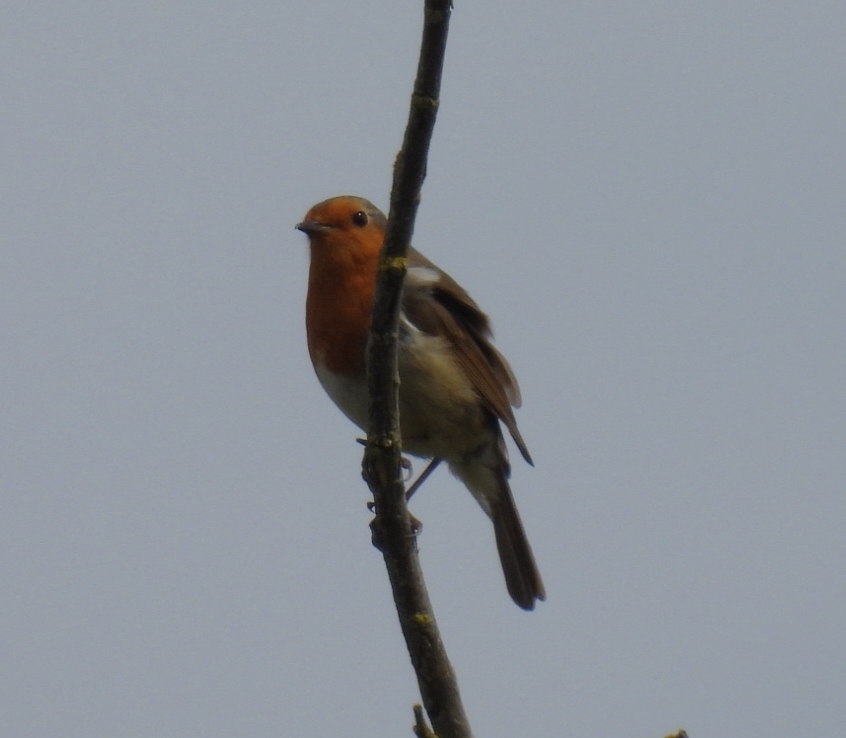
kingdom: Animalia
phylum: Chordata
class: Aves
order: Passeriformes
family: Muscicapidae
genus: Erithacus
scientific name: Erithacus rubecula
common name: European robin
